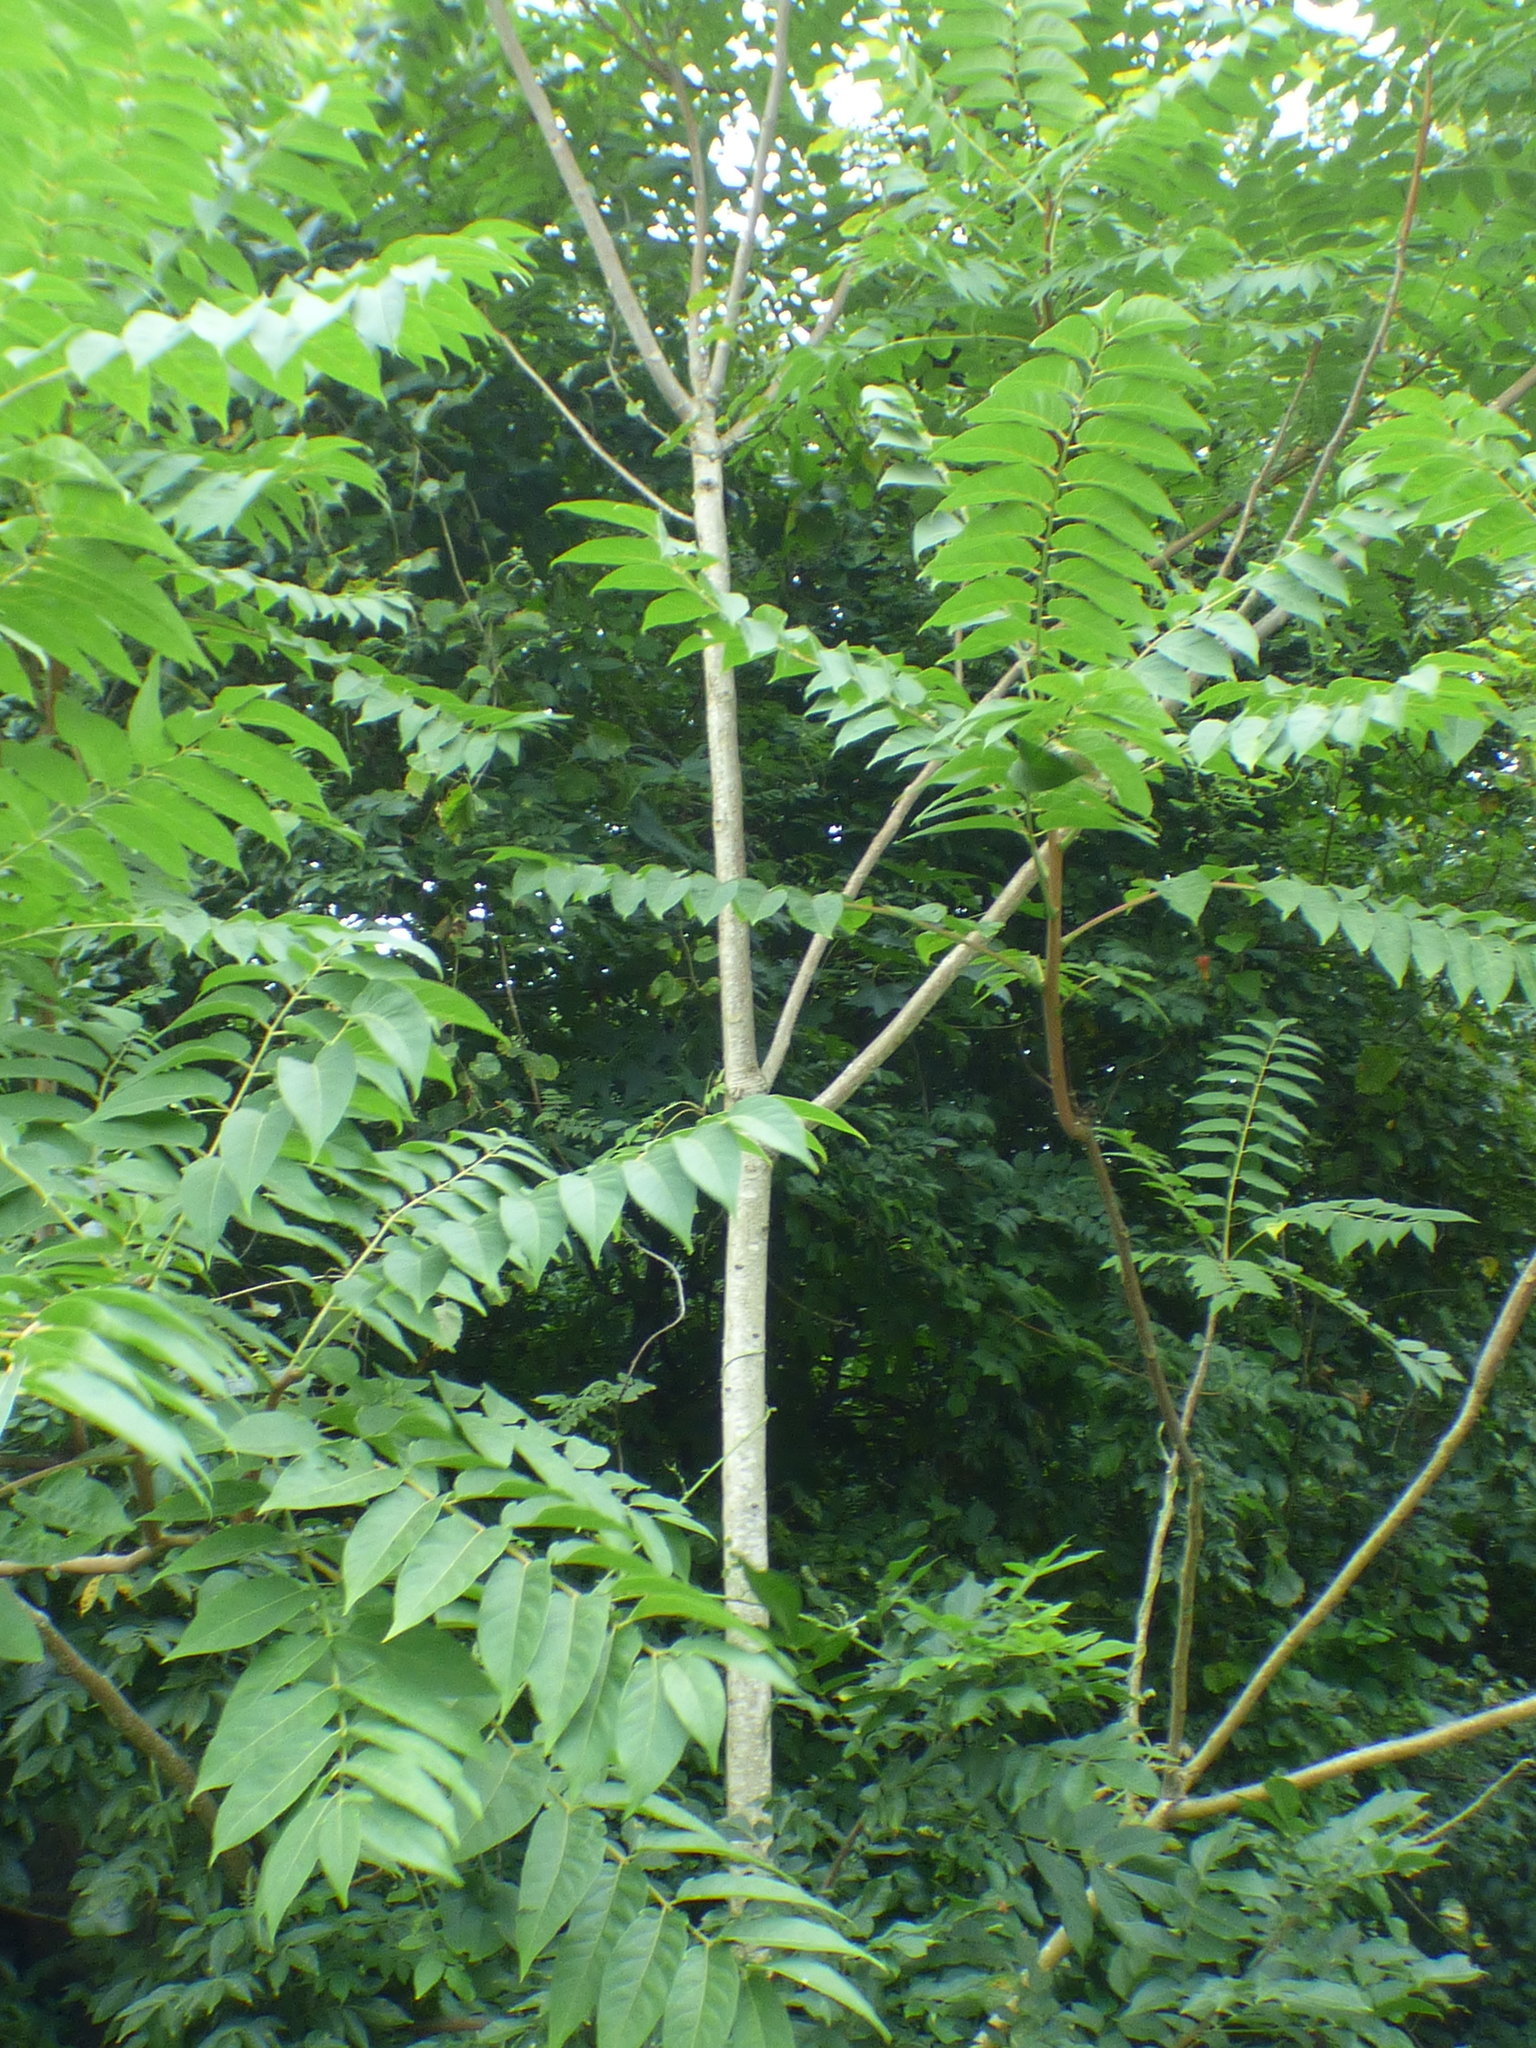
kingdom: Plantae
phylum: Tracheophyta
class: Magnoliopsida
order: Sapindales
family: Simaroubaceae
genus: Ailanthus
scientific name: Ailanthus altissima
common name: Tree-of-heaven
